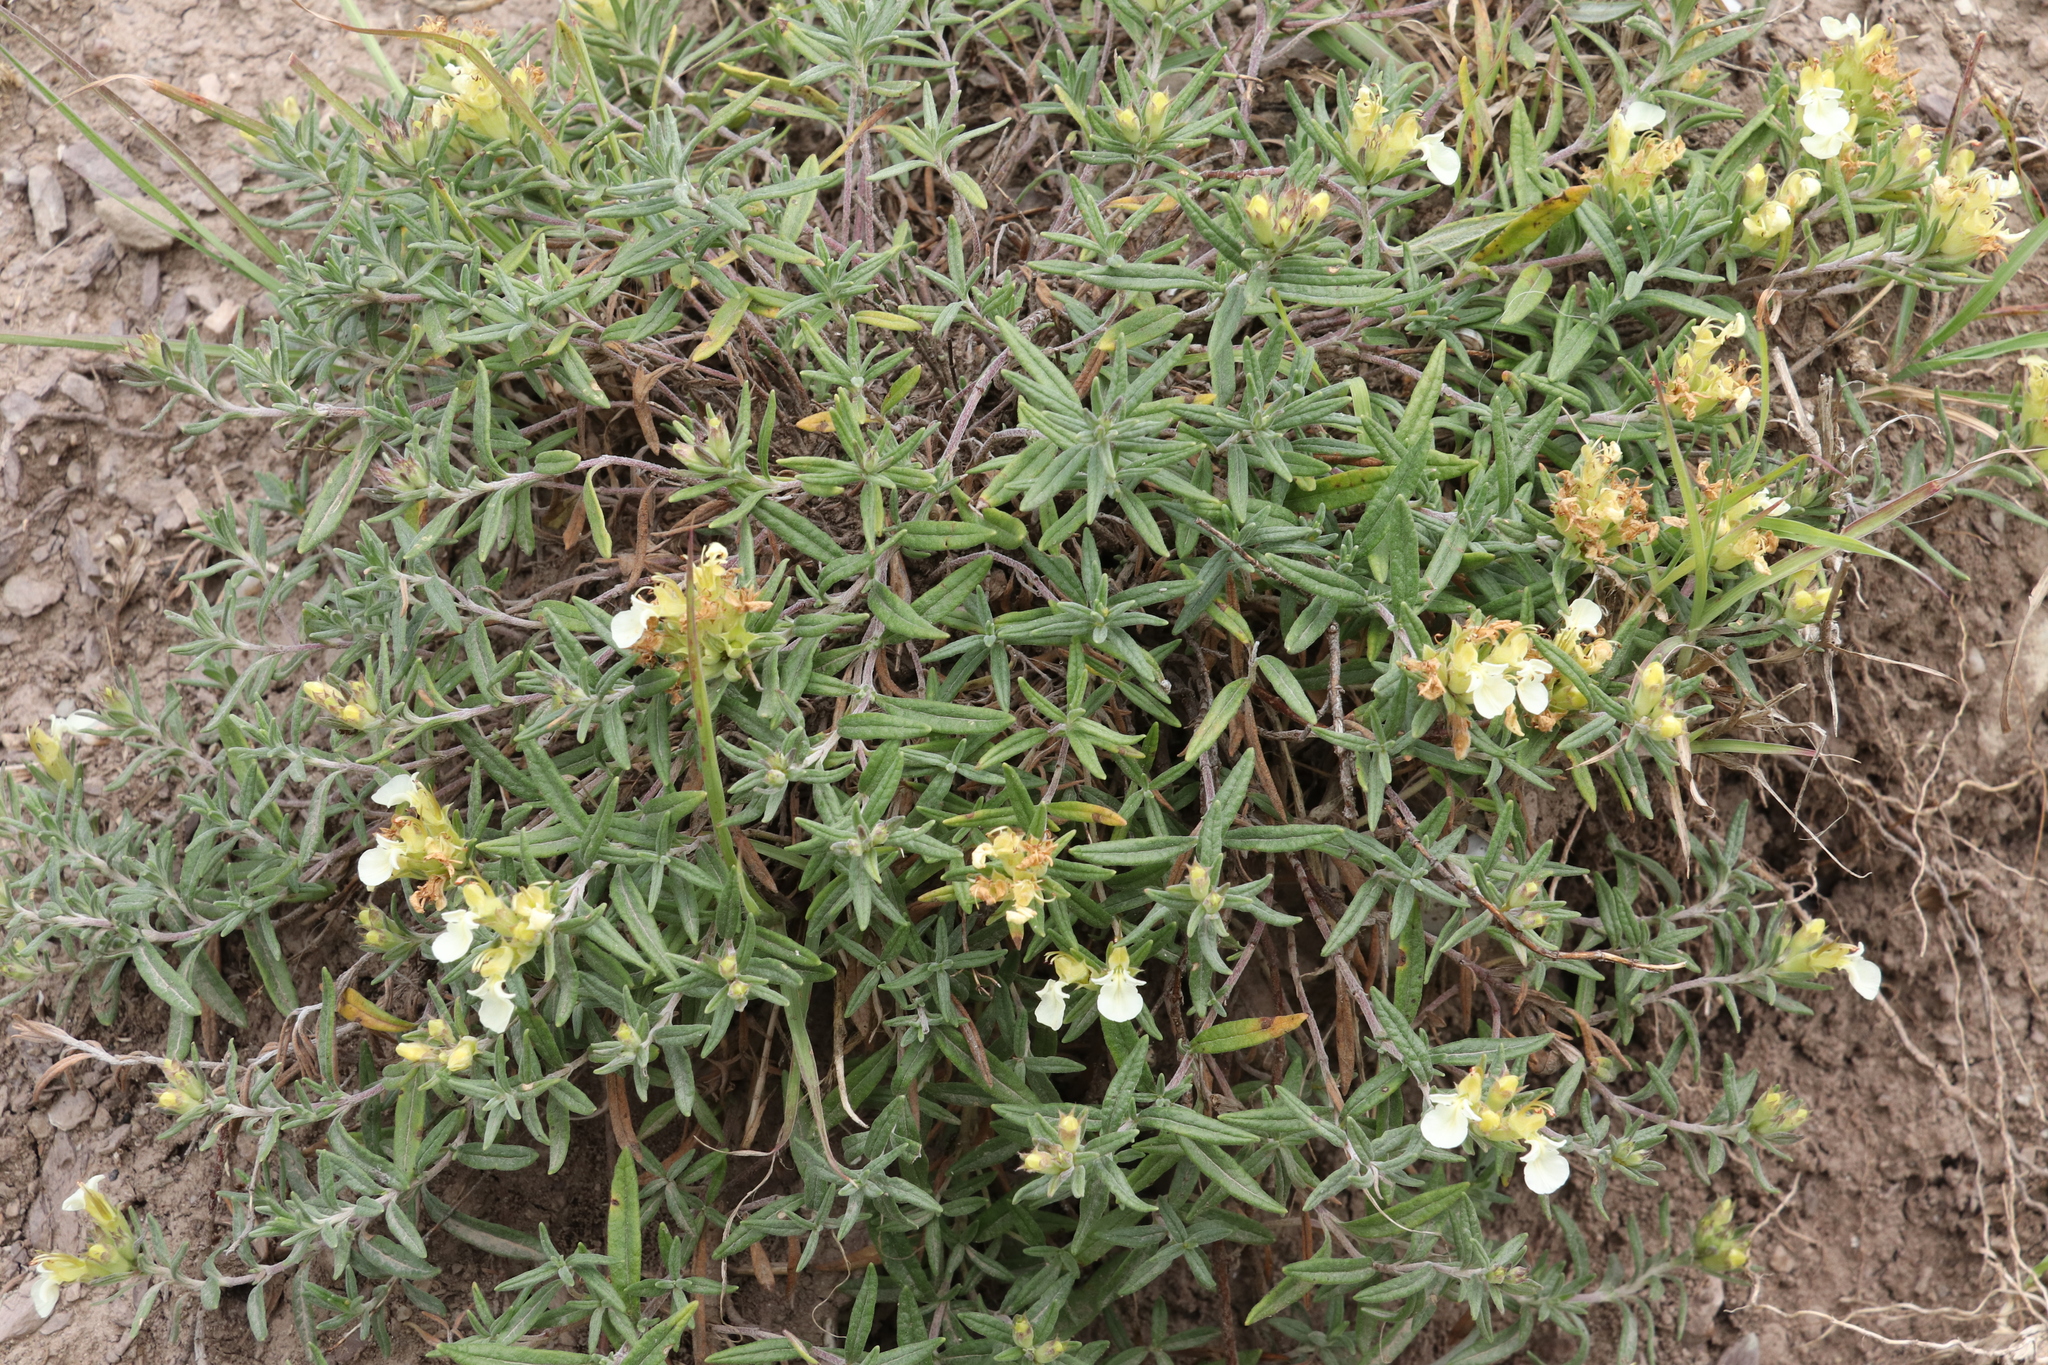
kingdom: Plantae
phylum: Tracheophyta
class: Magnoliopsida
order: Lamiales
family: Lamiaceae
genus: Teucrium
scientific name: Teucrium montanum
